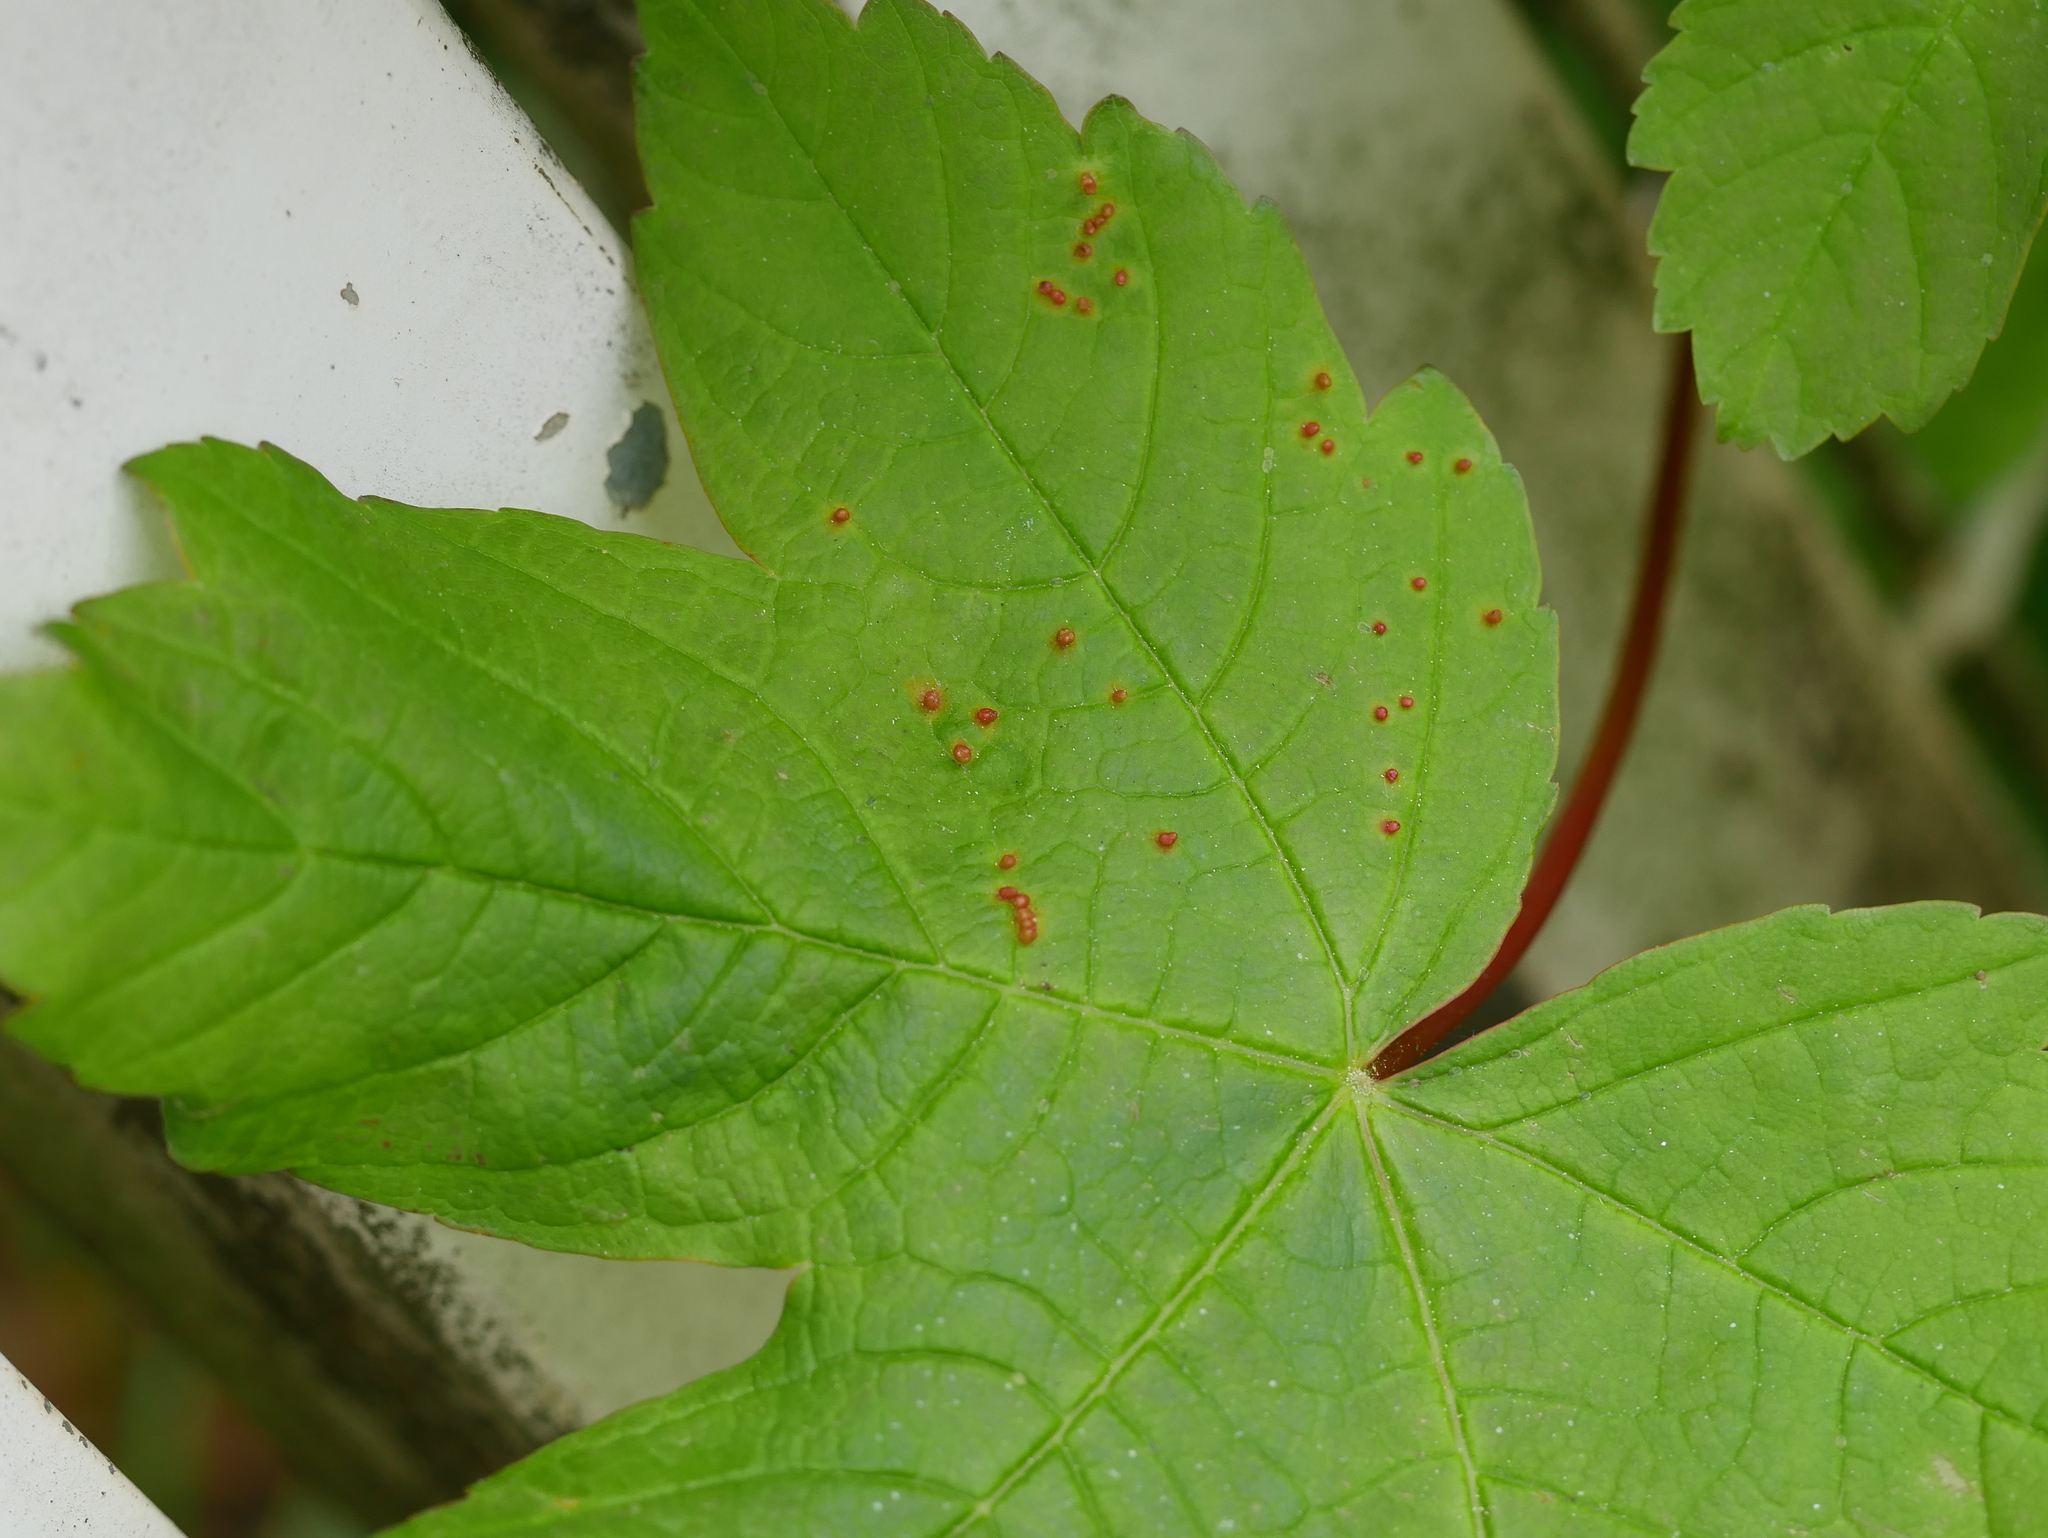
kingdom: Animalia
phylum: Arthropoda
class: Arachnida
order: Trombidiformes
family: Eriophyidae
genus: Aceria
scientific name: Aceria cephaloneus
